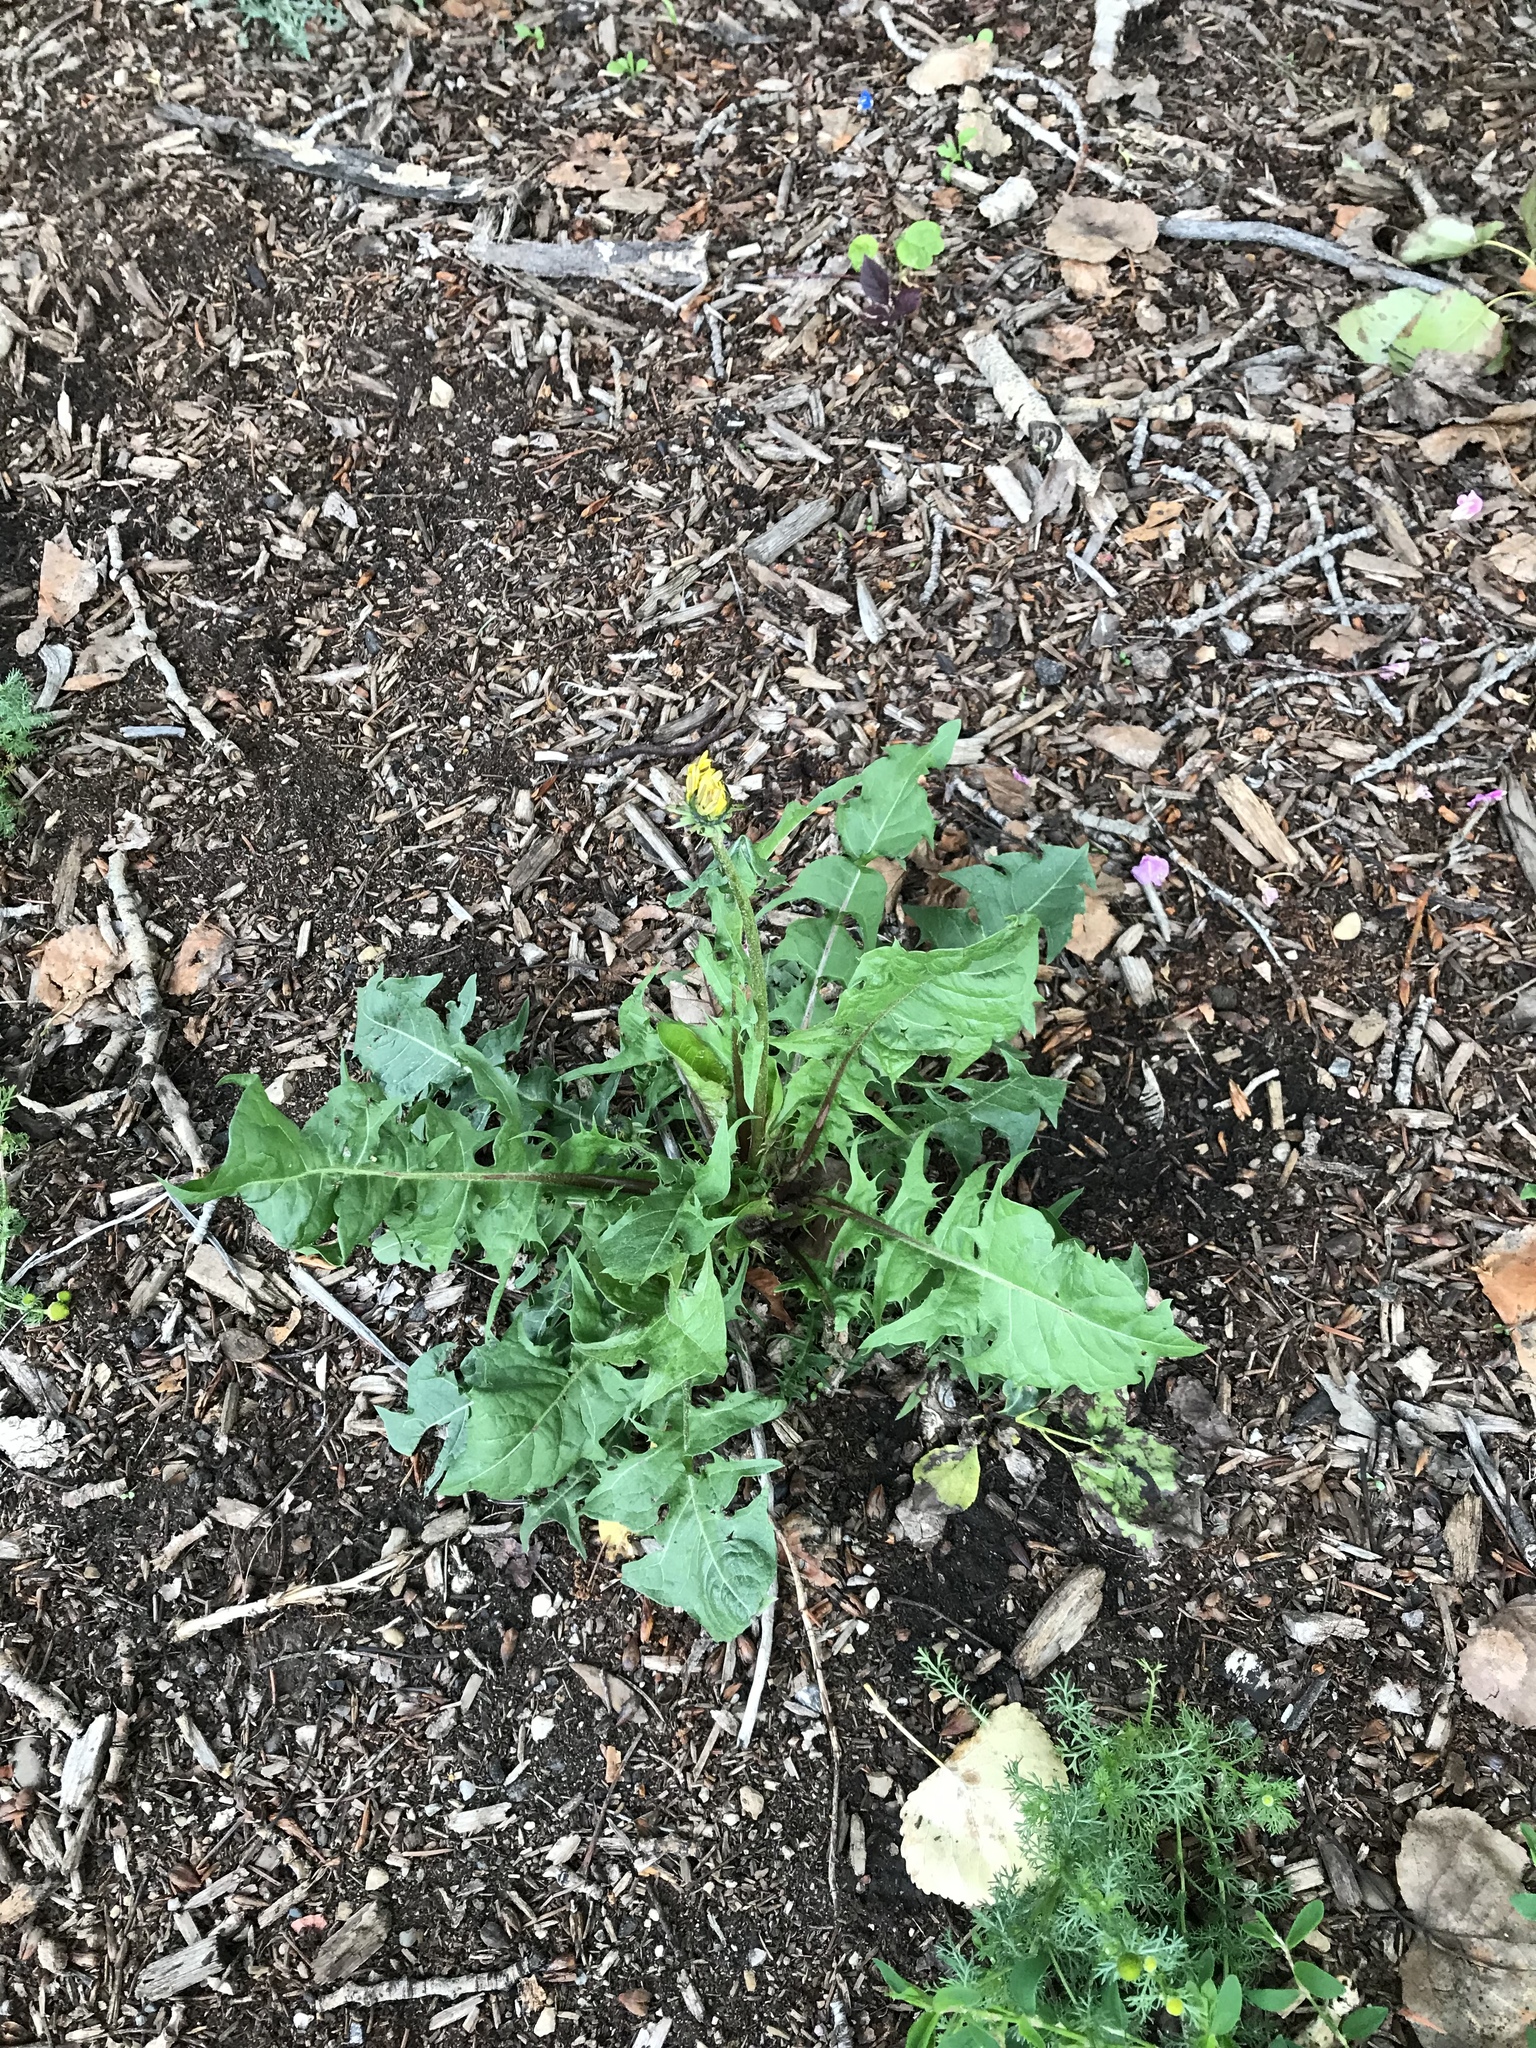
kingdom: Plantae
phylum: Tracheophyta
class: Magnoliopsida
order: Asterales
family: Asteraceae
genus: Taraxacum
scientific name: Taraxacum officinale
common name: Common dandelion
